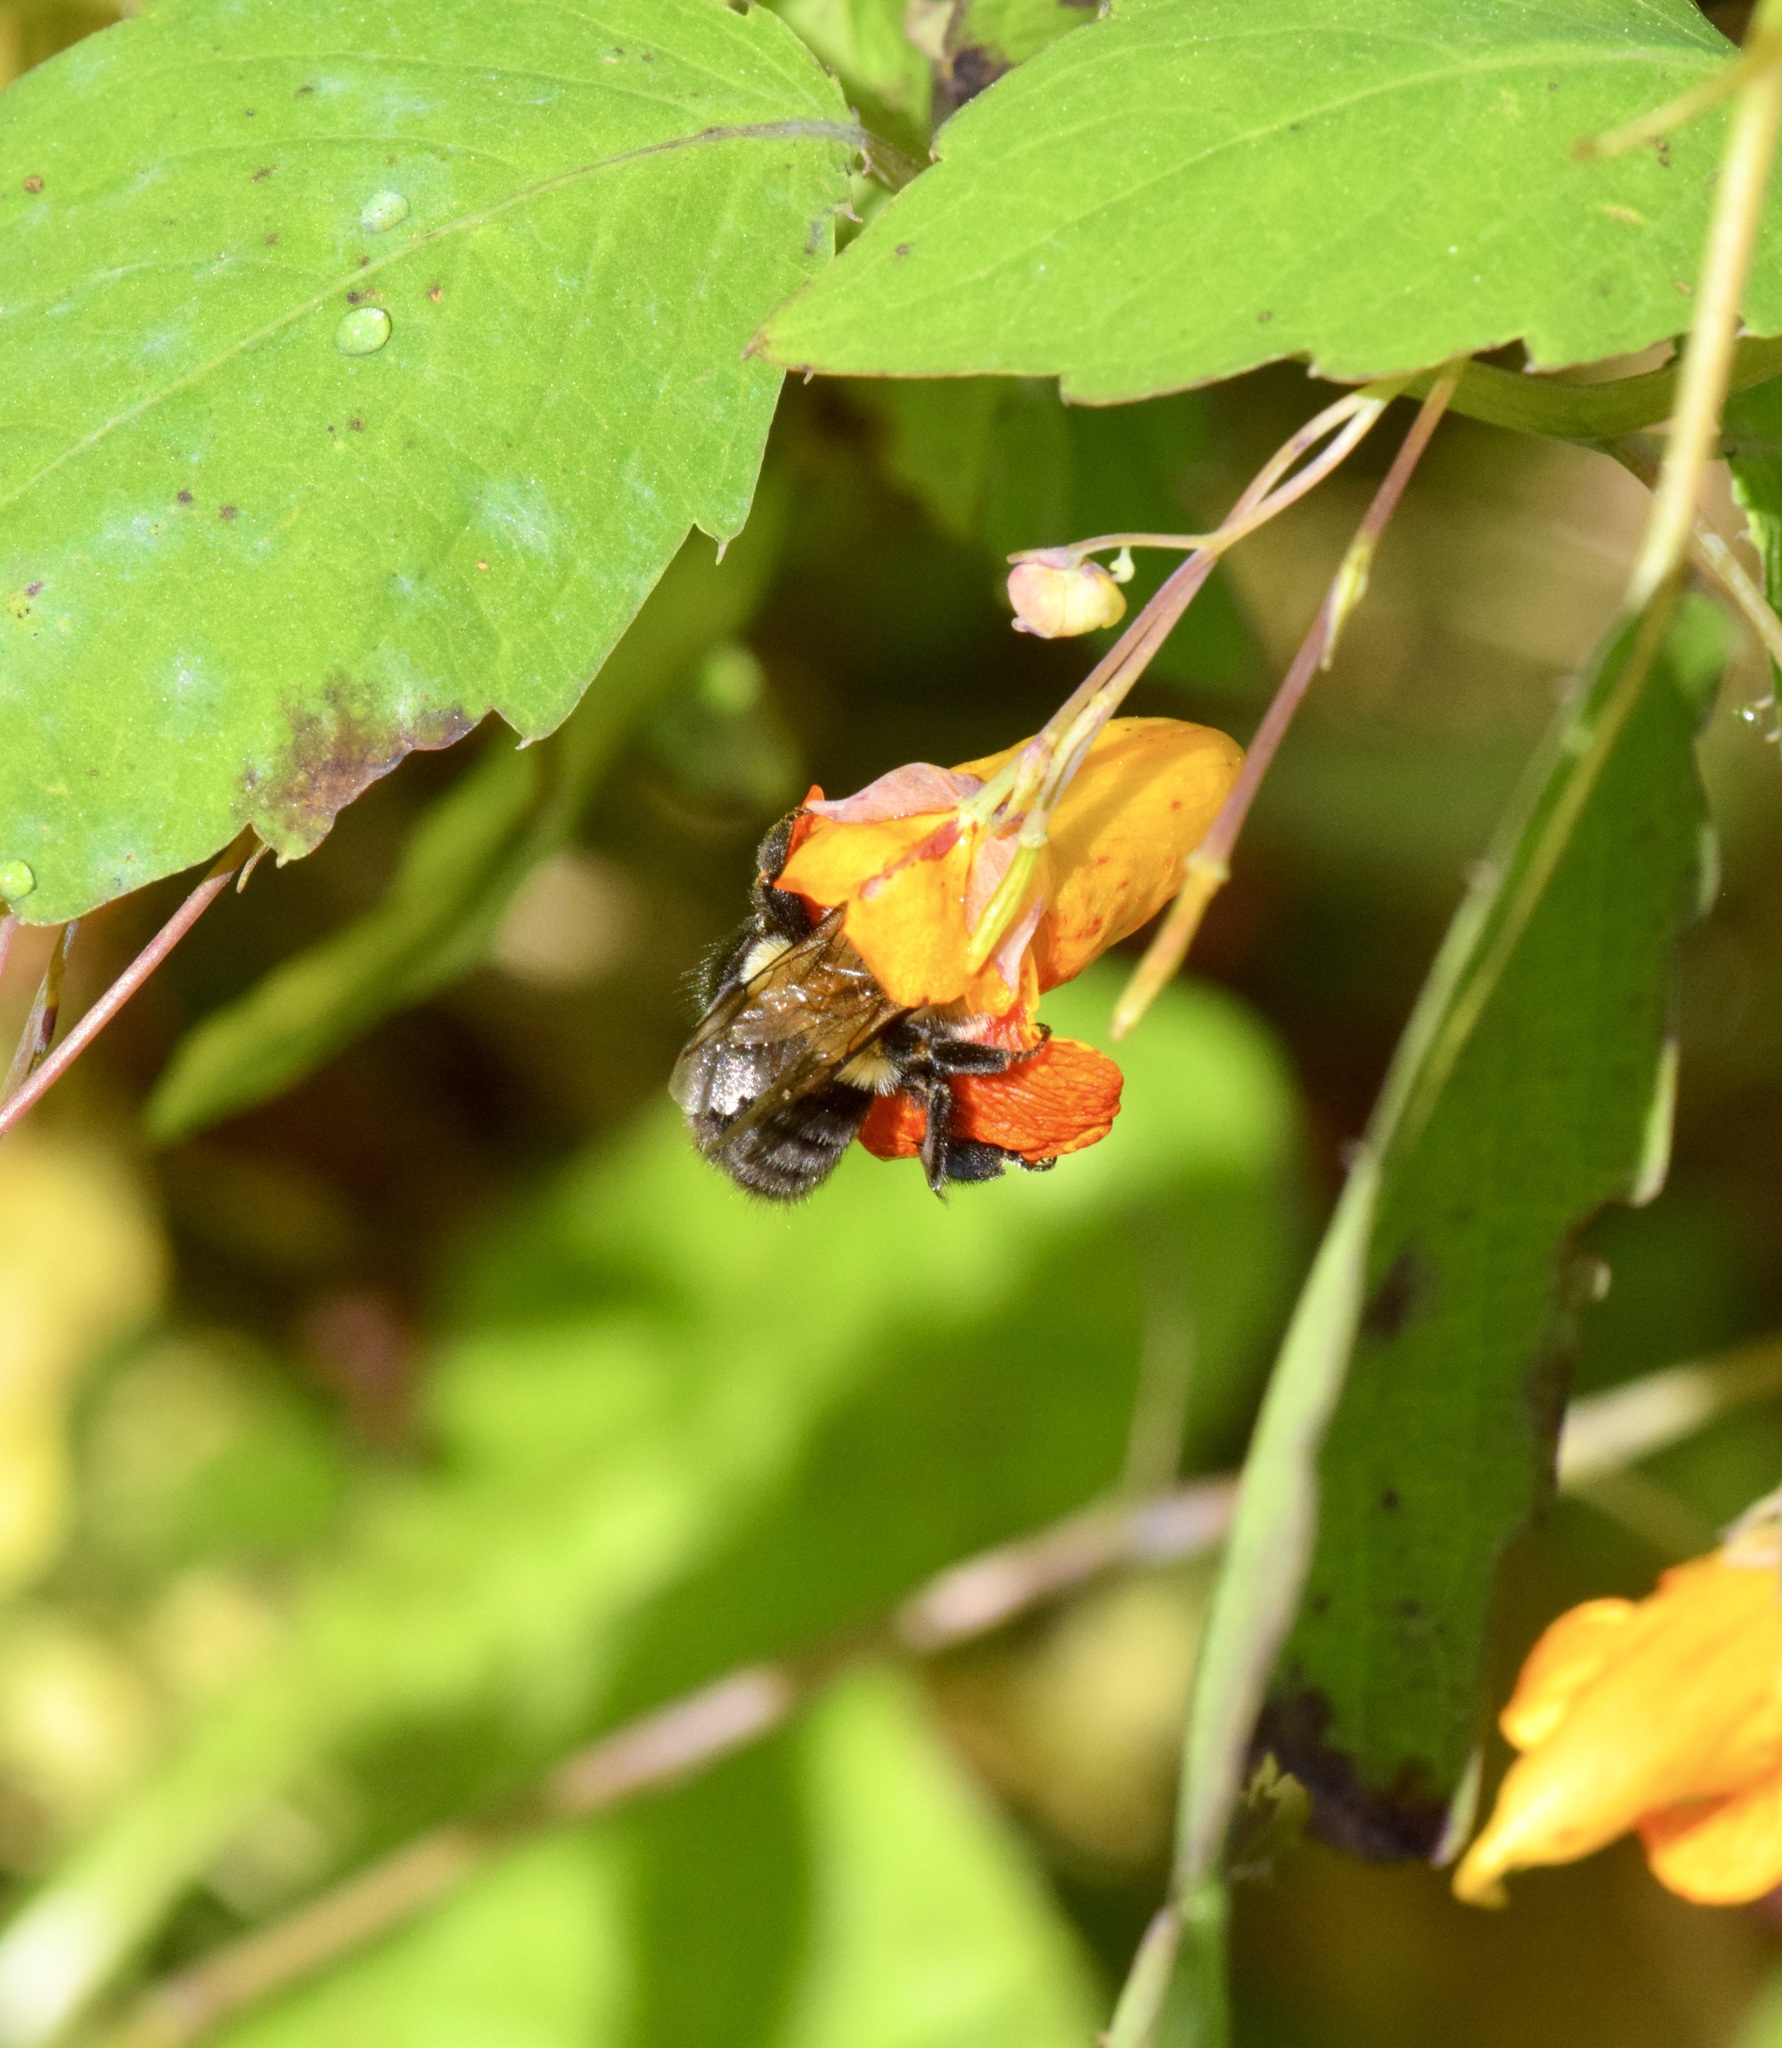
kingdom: Animalia
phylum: Arthropoda
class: Insecta
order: Hymenoptera
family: Apidae
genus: Bombus
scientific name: Bombus impatiens
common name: Common eastern bumble bee
